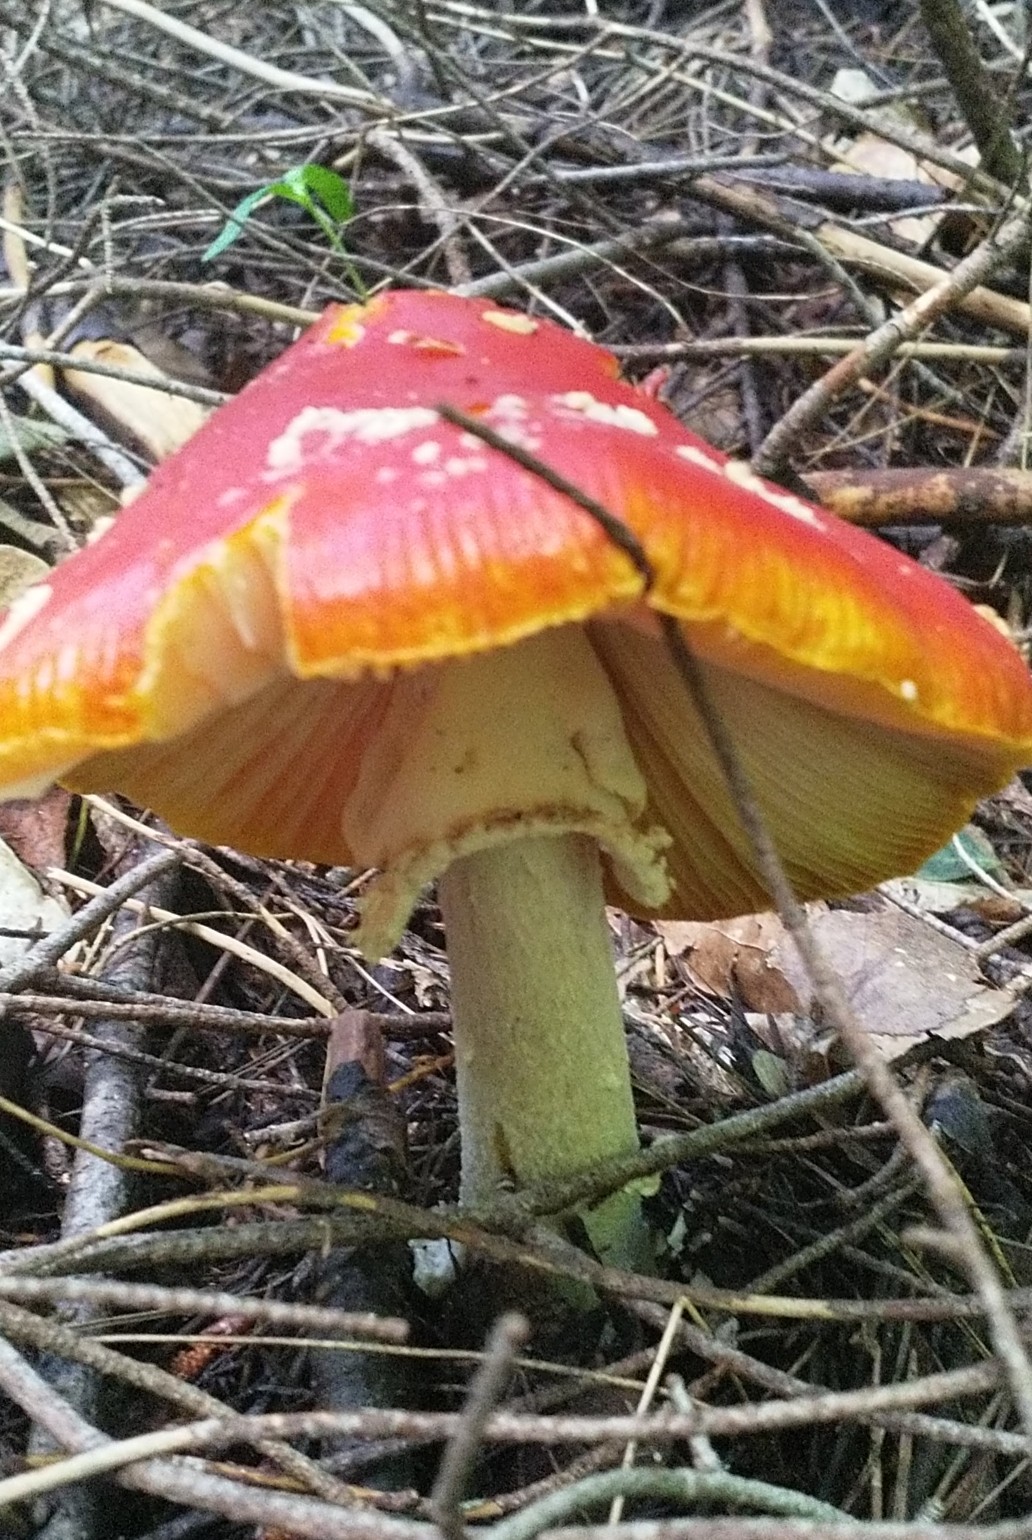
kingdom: Fungi
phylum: Basidiomycota
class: Agaricomycetes
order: Agaricales
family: Amanitaceae
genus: Amanita
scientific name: Amanita muscaria
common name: Fly agaric
